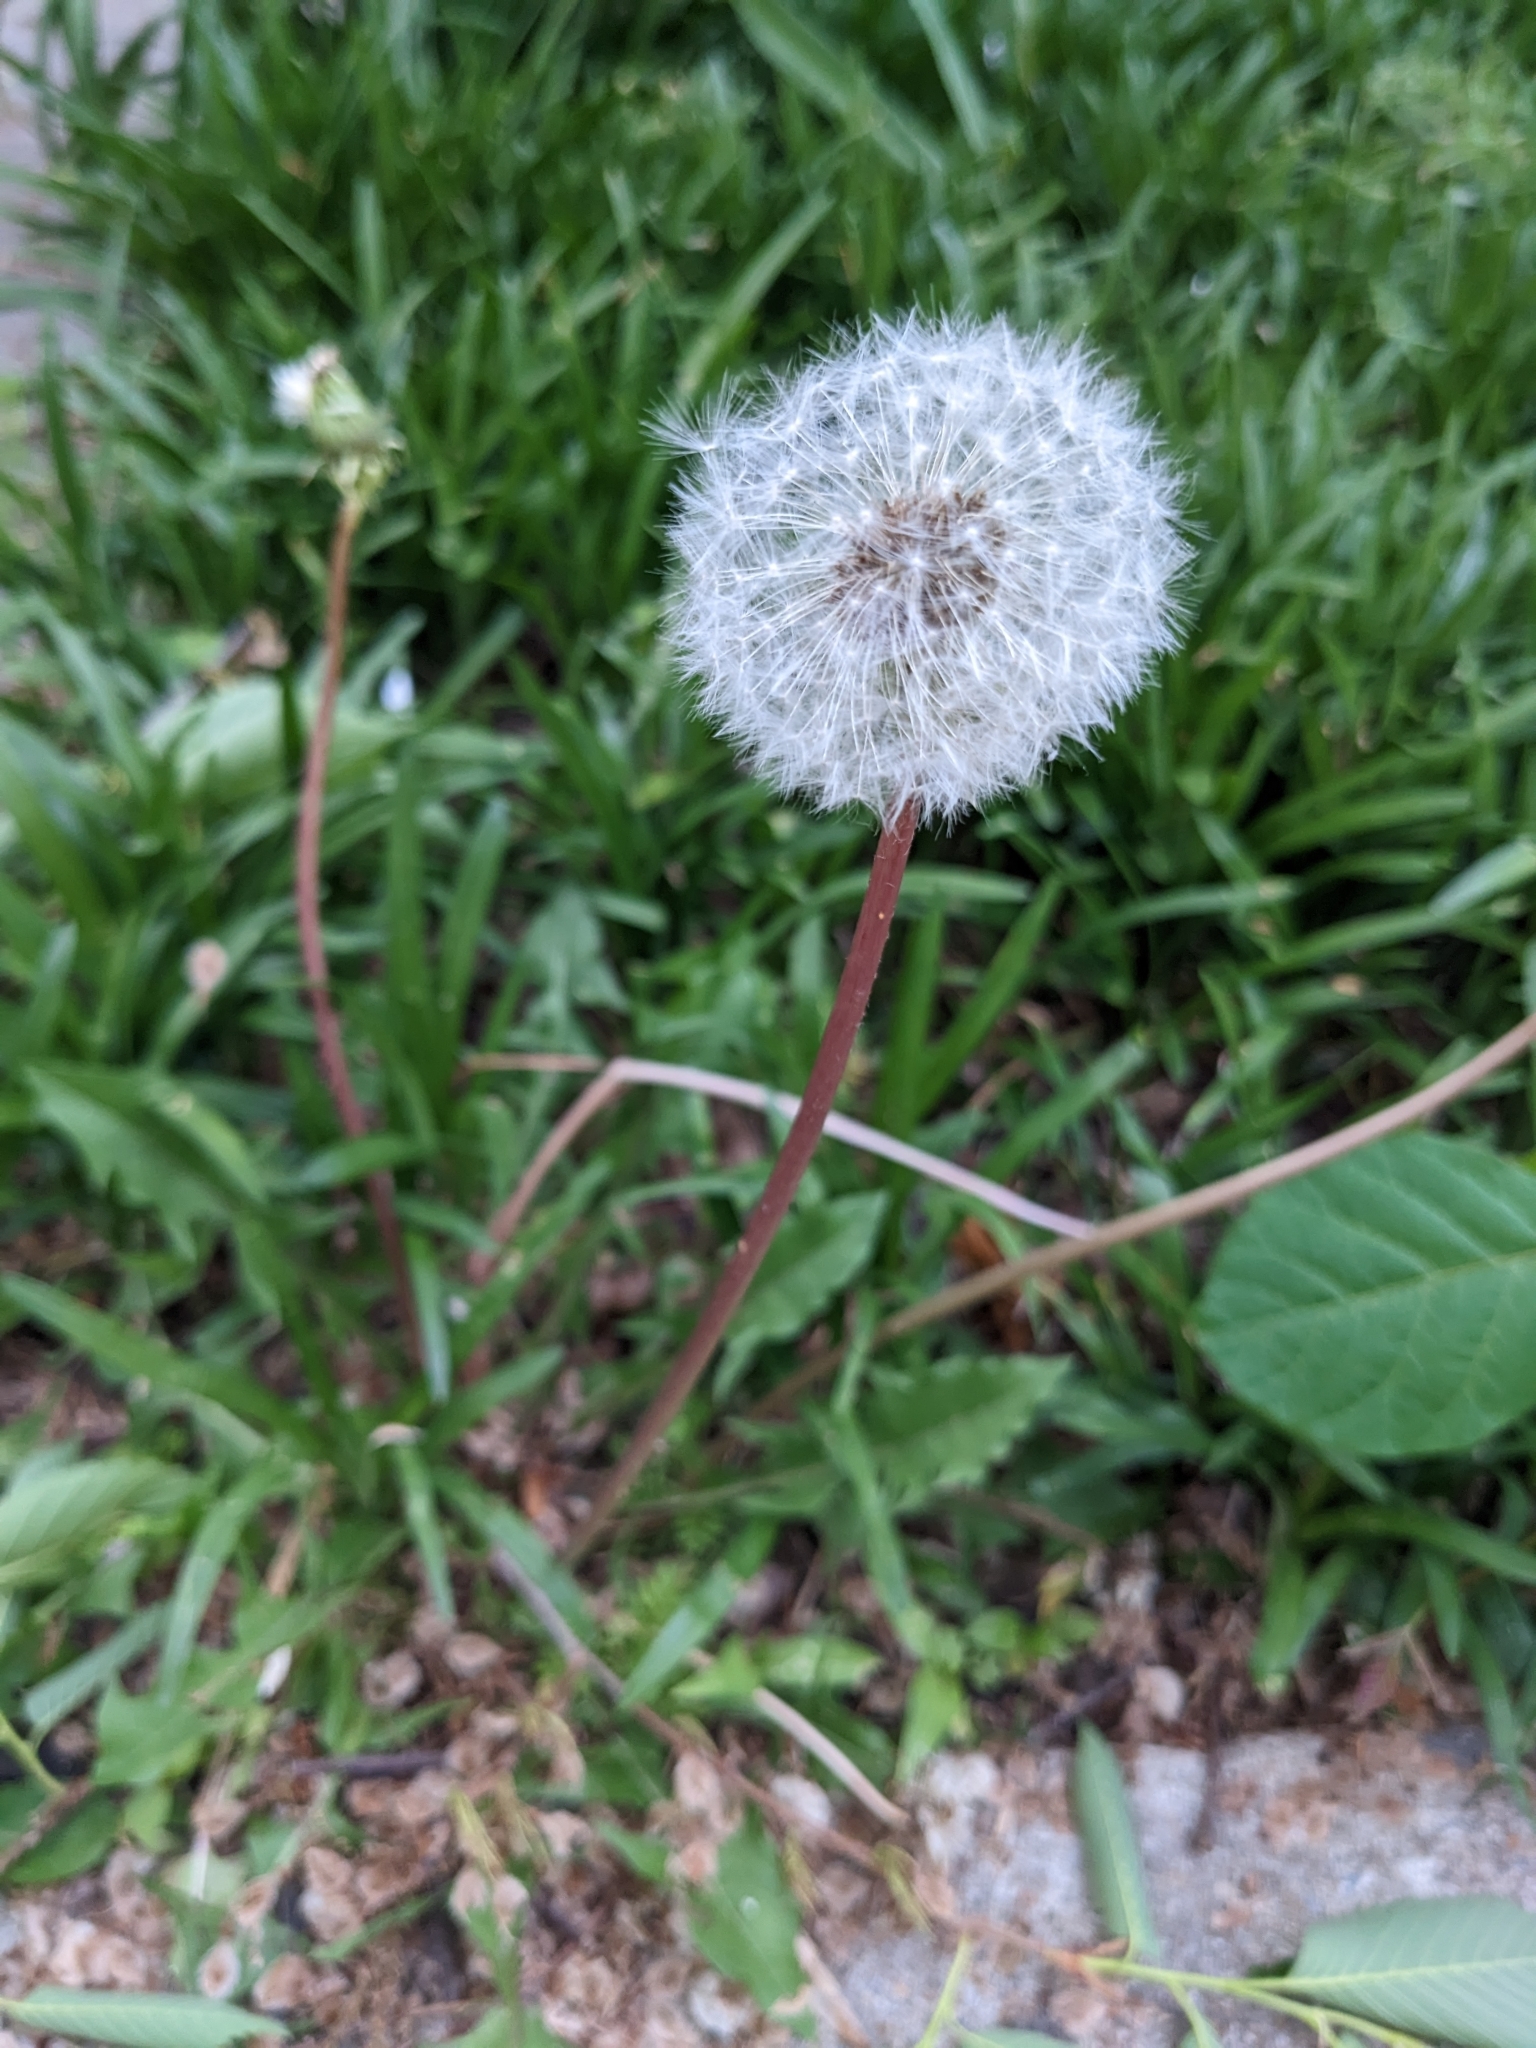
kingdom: Plantae
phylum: Tracheophyta
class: Magnoliopsida
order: Asterales
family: Asteraceae
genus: Taraxacum
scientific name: Taraxacum officinale
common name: Common dandelion
